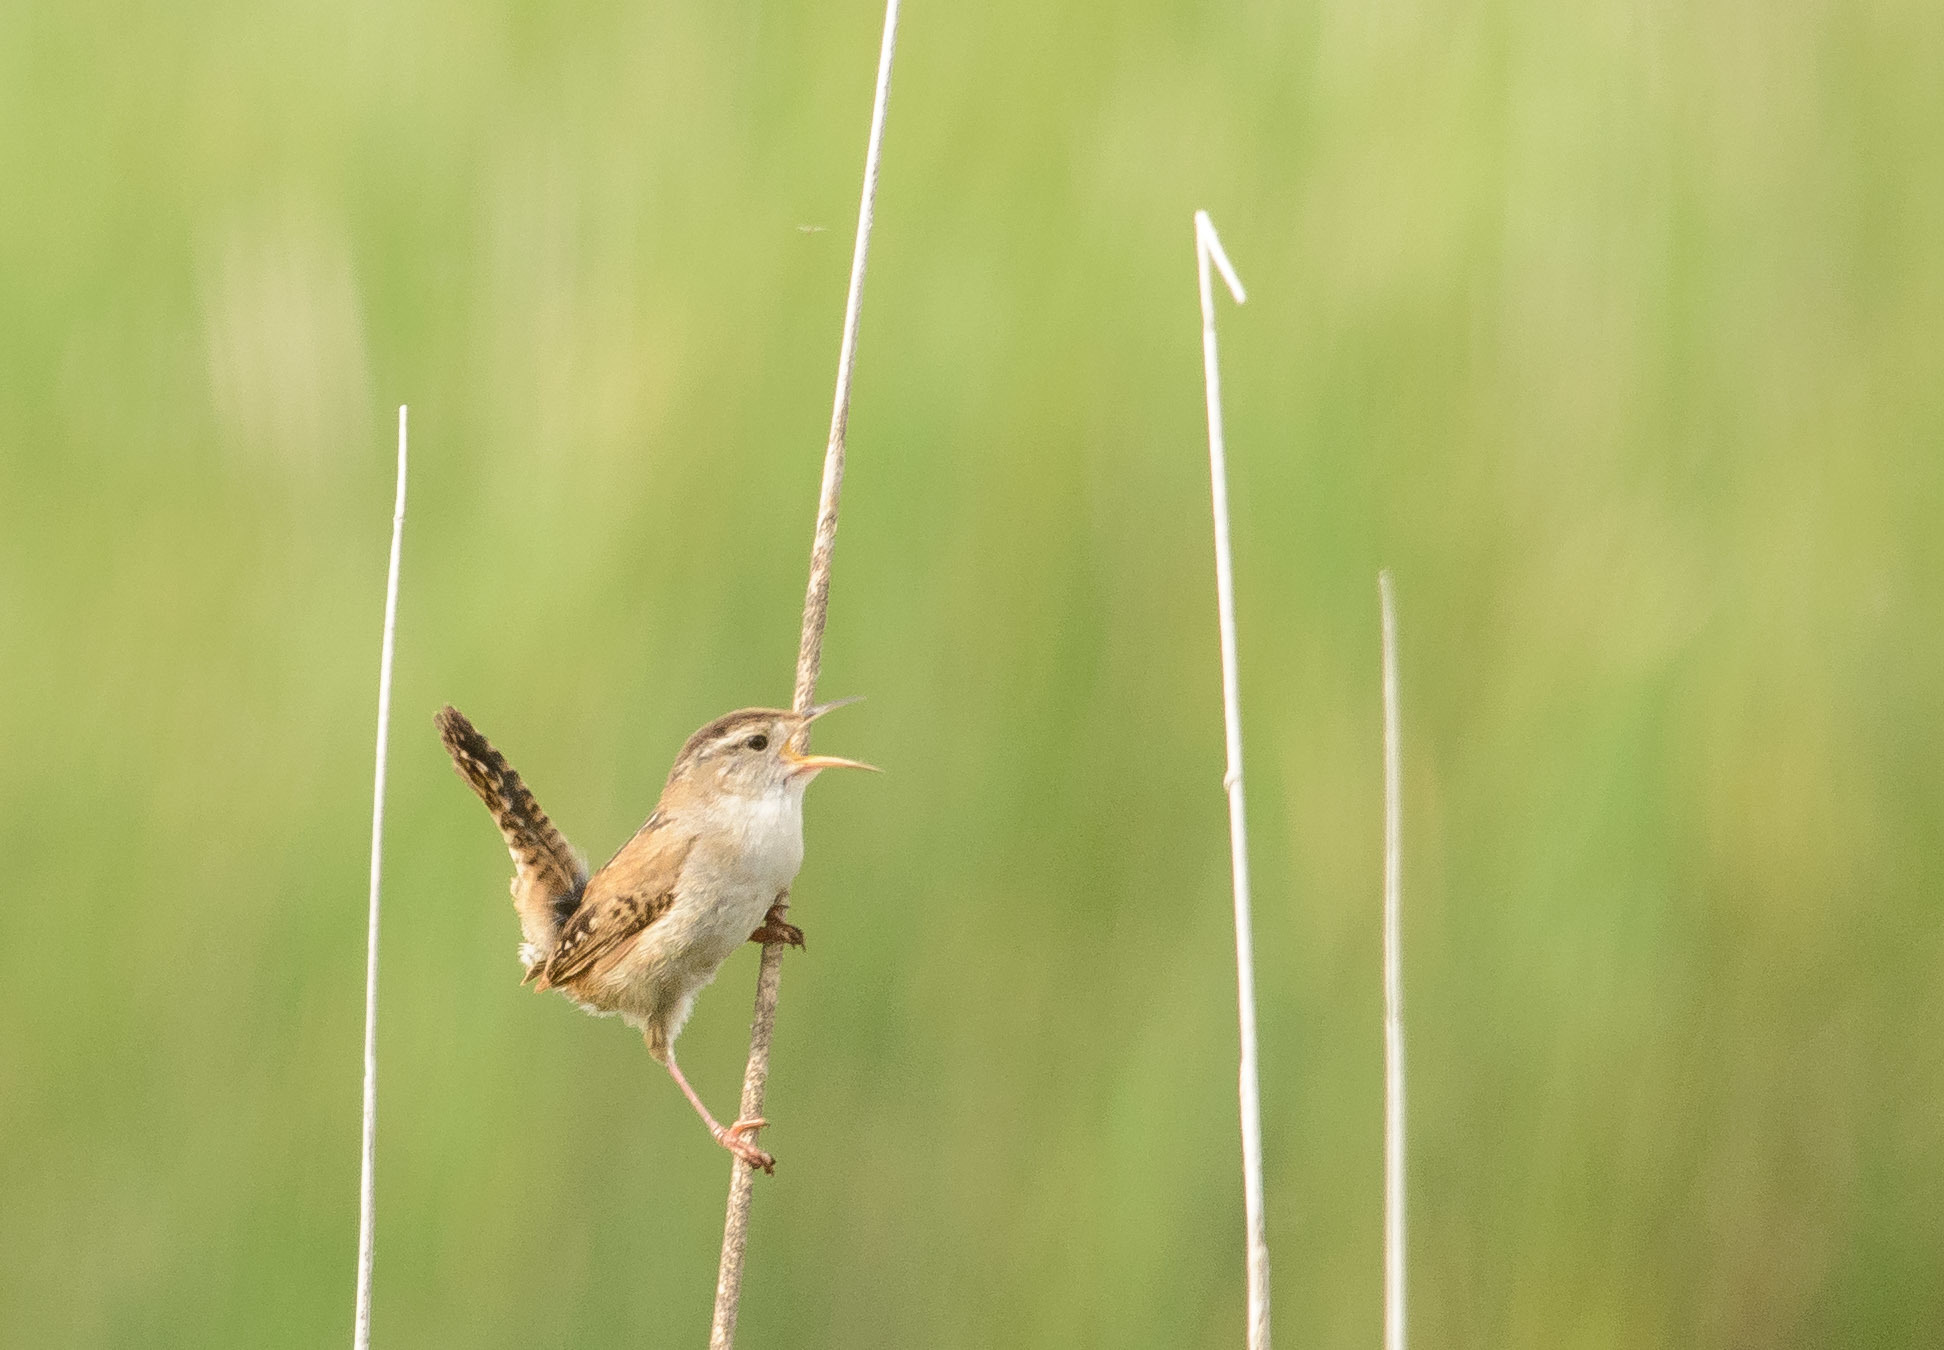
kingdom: Animalia
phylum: Chordata
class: Aves
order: Passeriformes
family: Troglodytidae
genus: Cistothorus
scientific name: Cistothorus palustris
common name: Marsh wren
